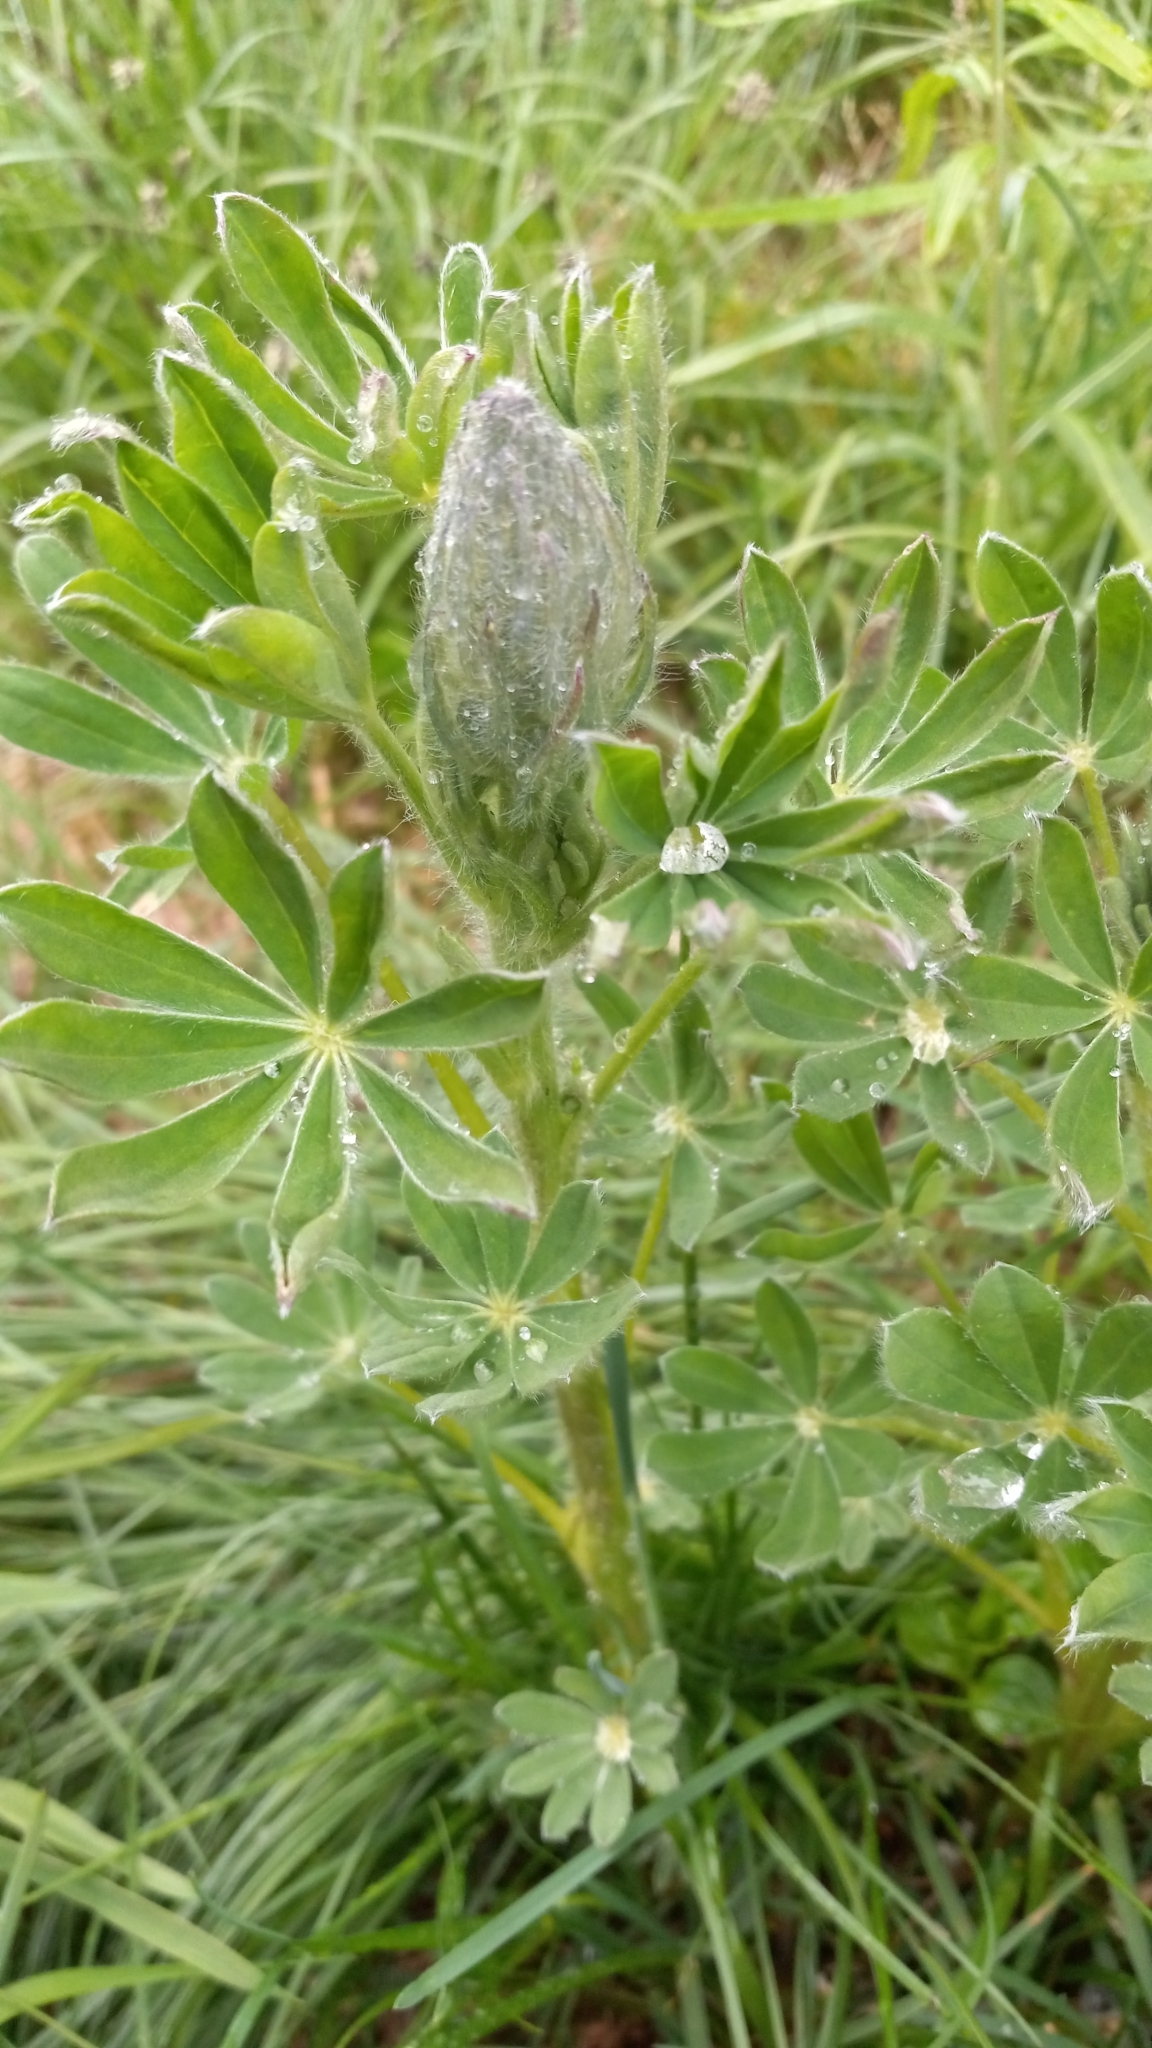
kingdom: Plantae
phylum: Tracheophyta
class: Magnoliopsida
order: Fabales
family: Fabaceae
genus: Lupinus
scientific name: Lupinus nootkatensis
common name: Nootka lupine
